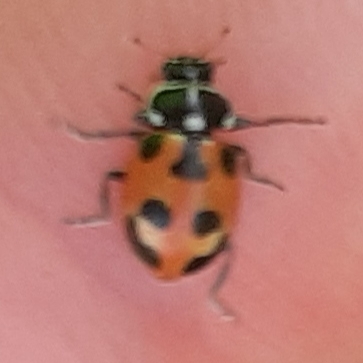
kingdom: Animalia
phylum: Arthropoda
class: Insecta
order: Coleoptera
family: Coccinellidae
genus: Hippodamia
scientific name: Hippodamia parenthesis
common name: Parenthesis lady beetle
